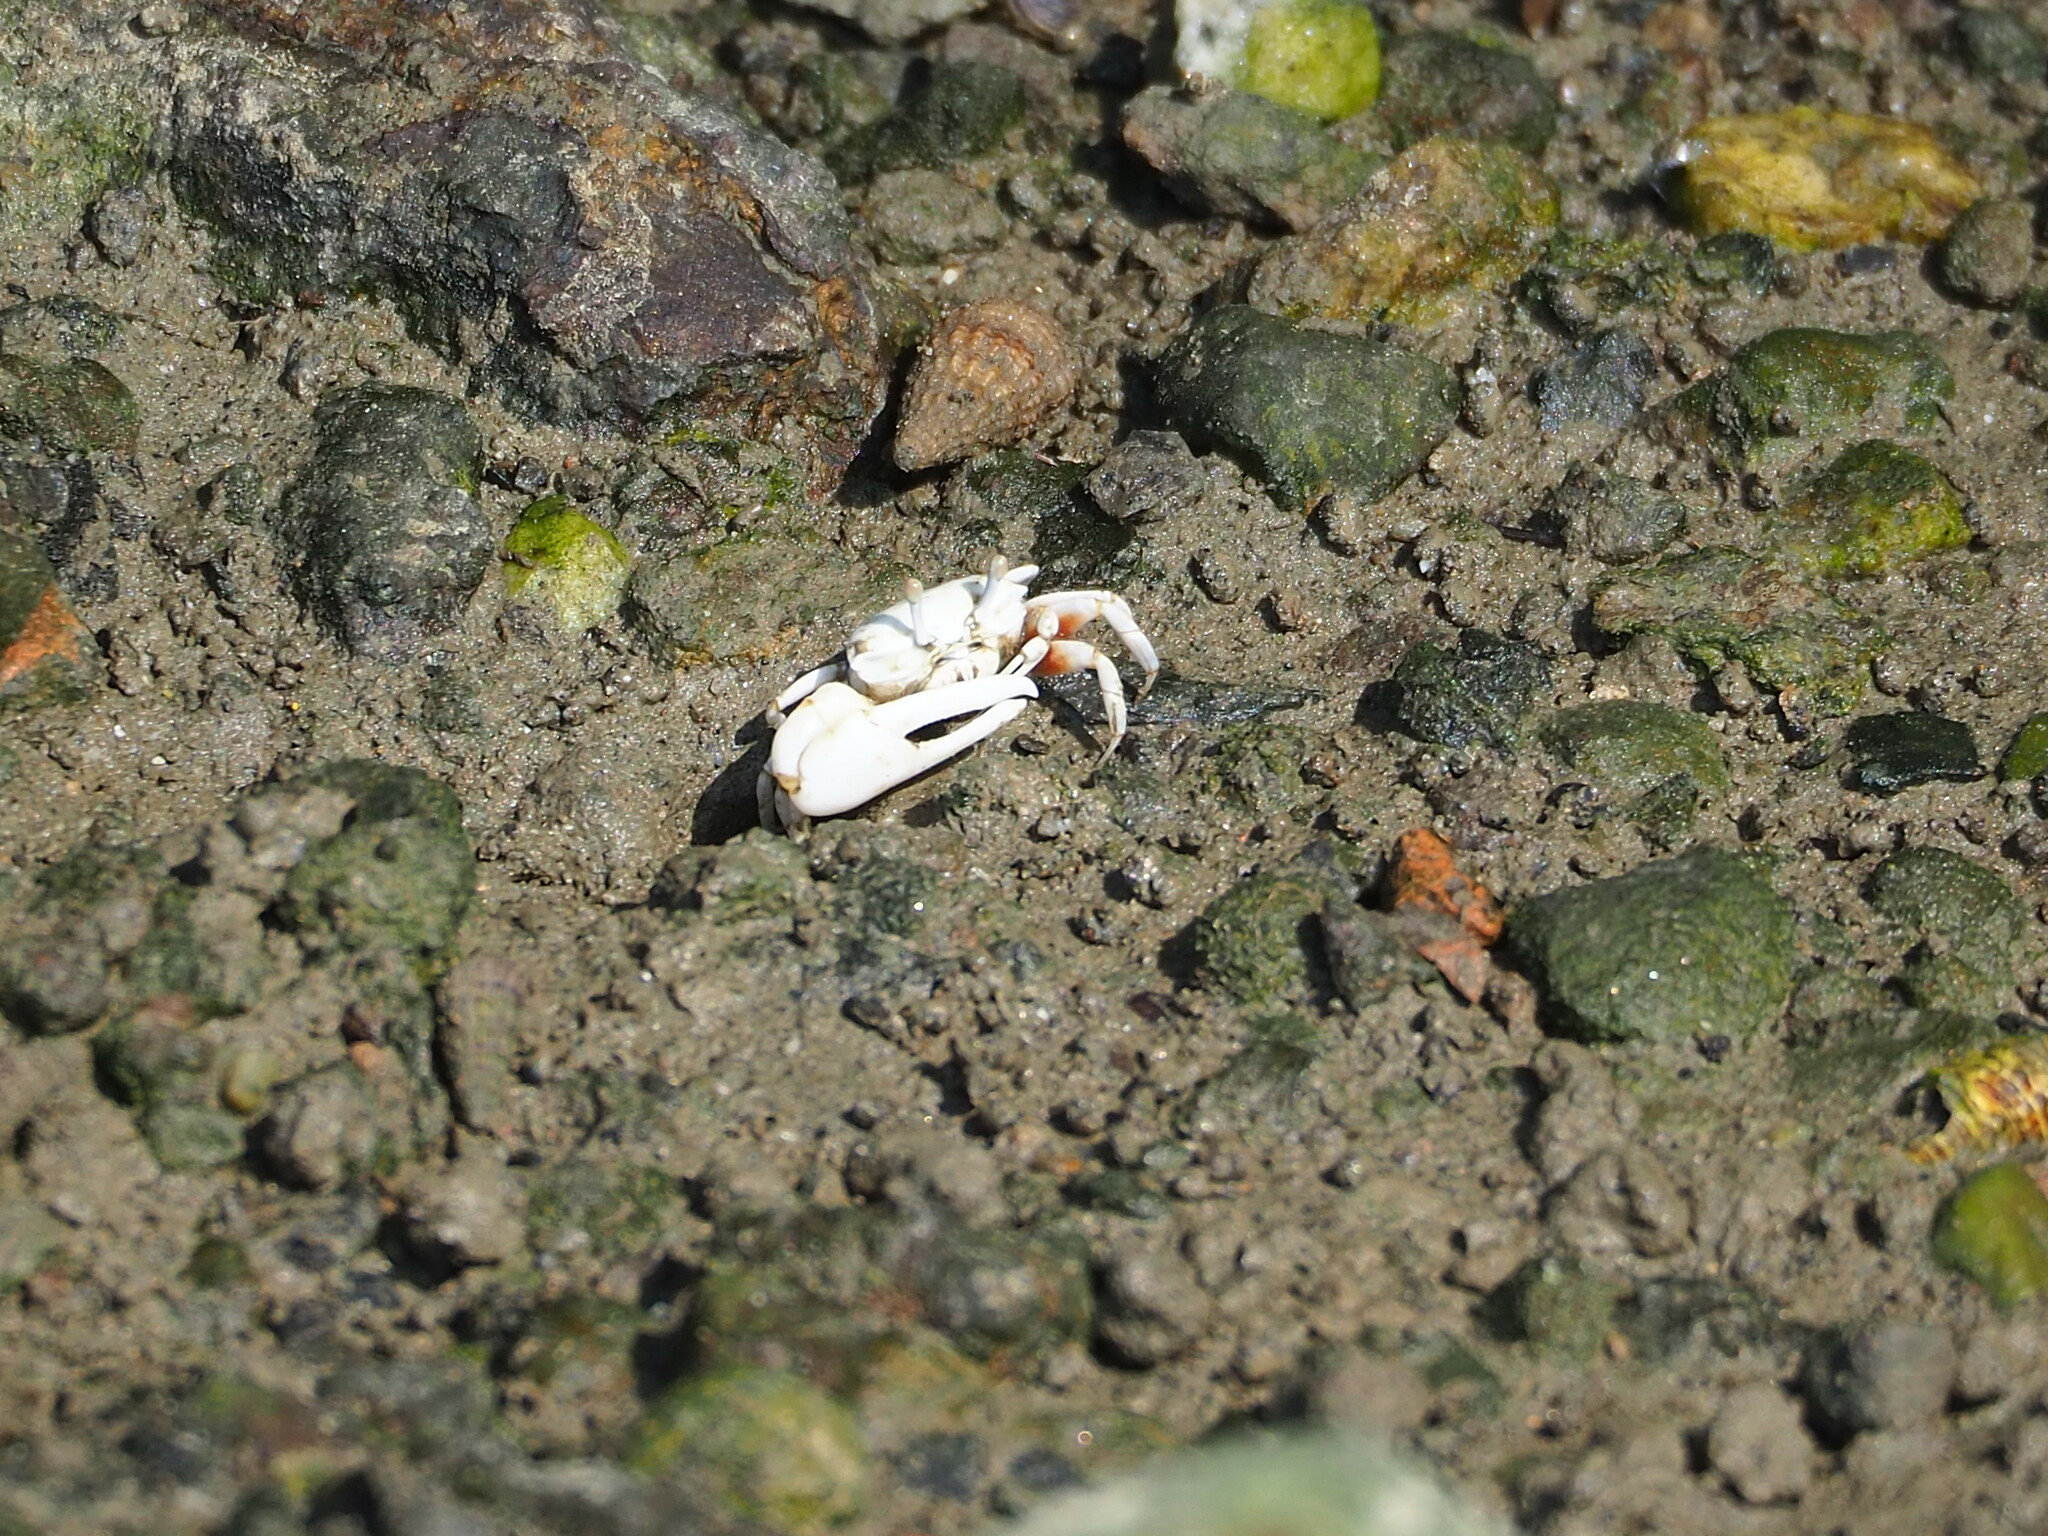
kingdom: Animalia
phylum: Arthropoda
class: Malacostraca
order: Decapoda
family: Ocypodidae
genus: Austruca
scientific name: Austruca lactea
